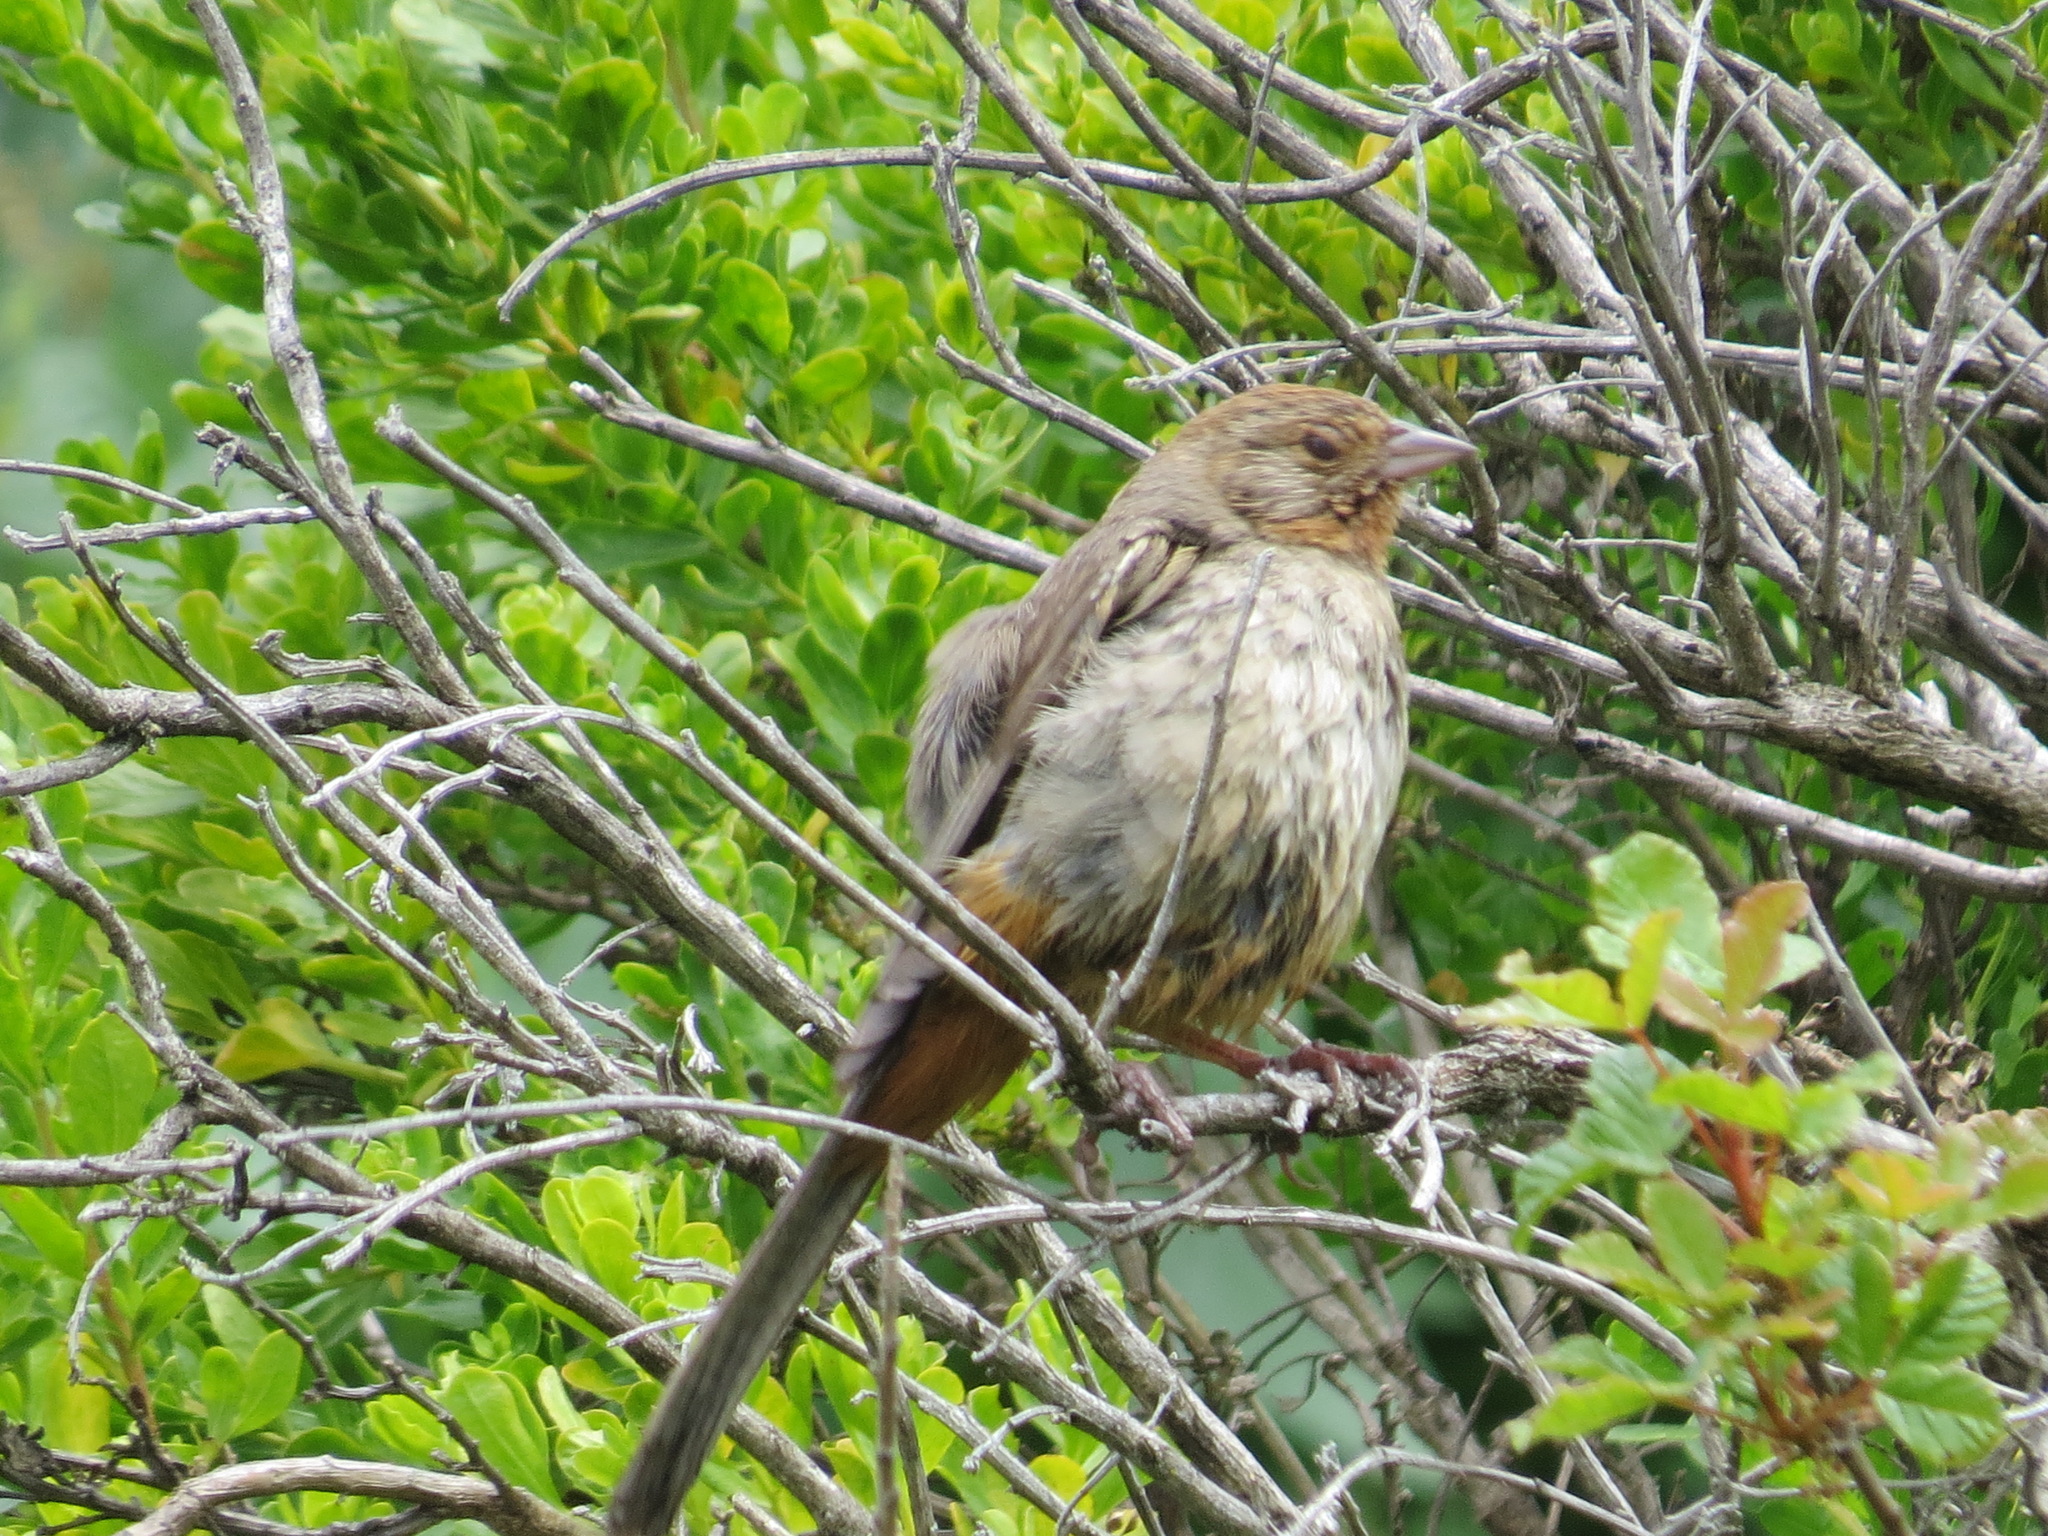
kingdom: Animalia
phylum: Chordata
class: Aves
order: Passeriformes
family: Passerellidae
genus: Melozone
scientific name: Melozone crissalis
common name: California towhee
